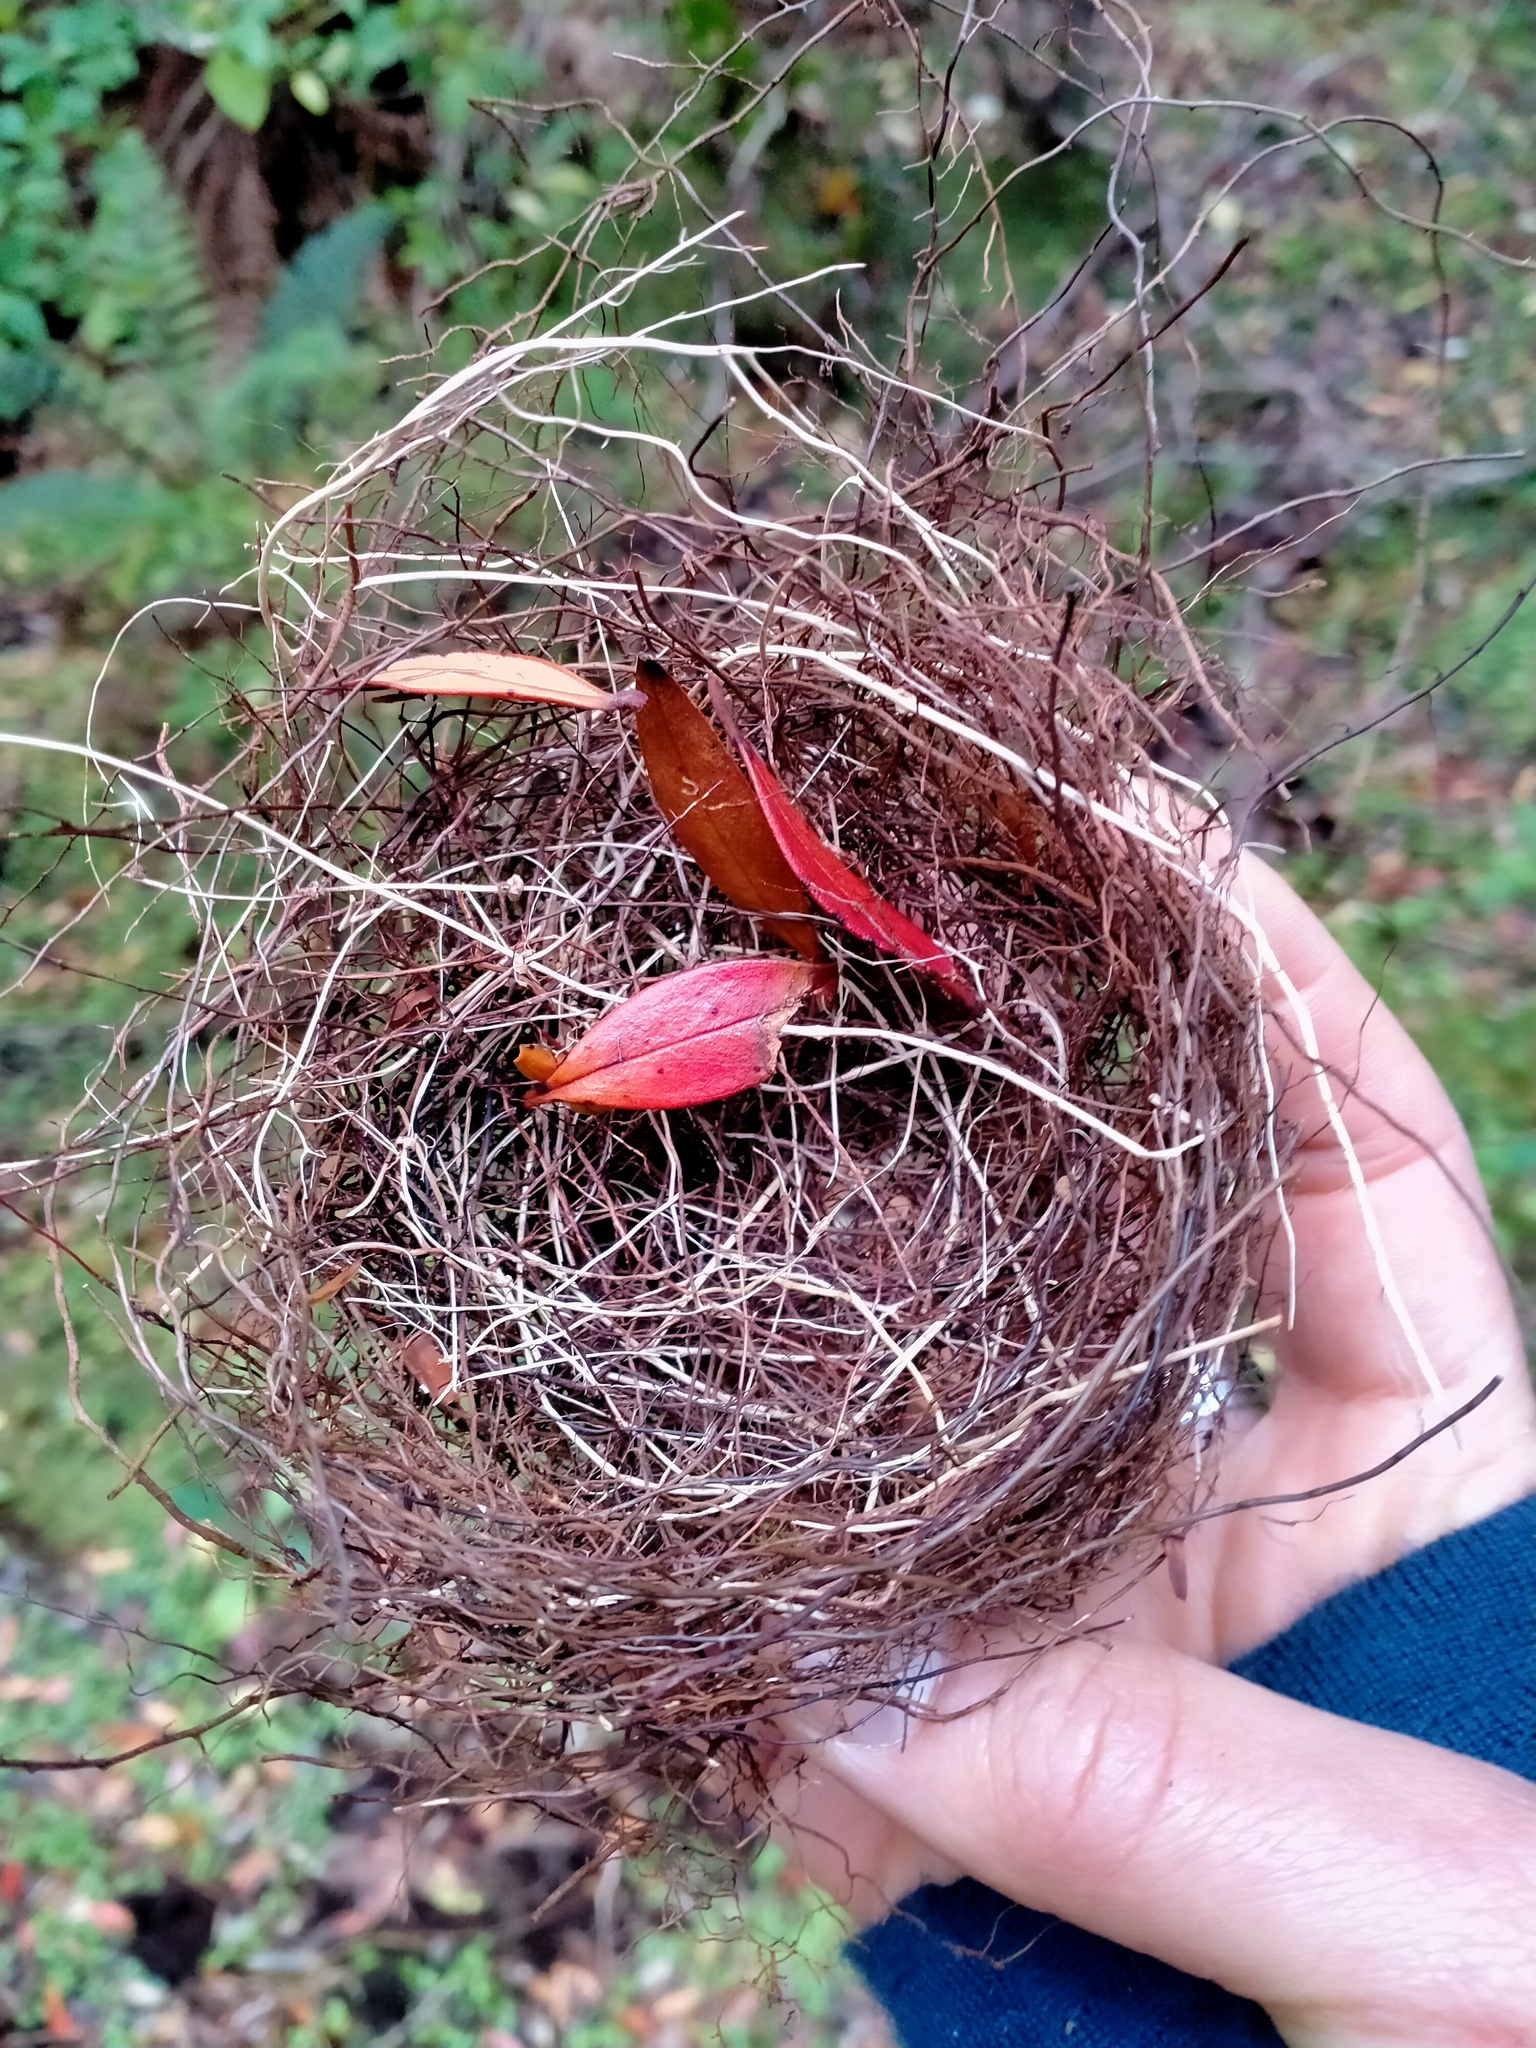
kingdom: Animalia
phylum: Chordata
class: Aves
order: Passeriformes
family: Zosteropidae
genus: Zosterops
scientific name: Zosterops lateralis
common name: Silvereye
